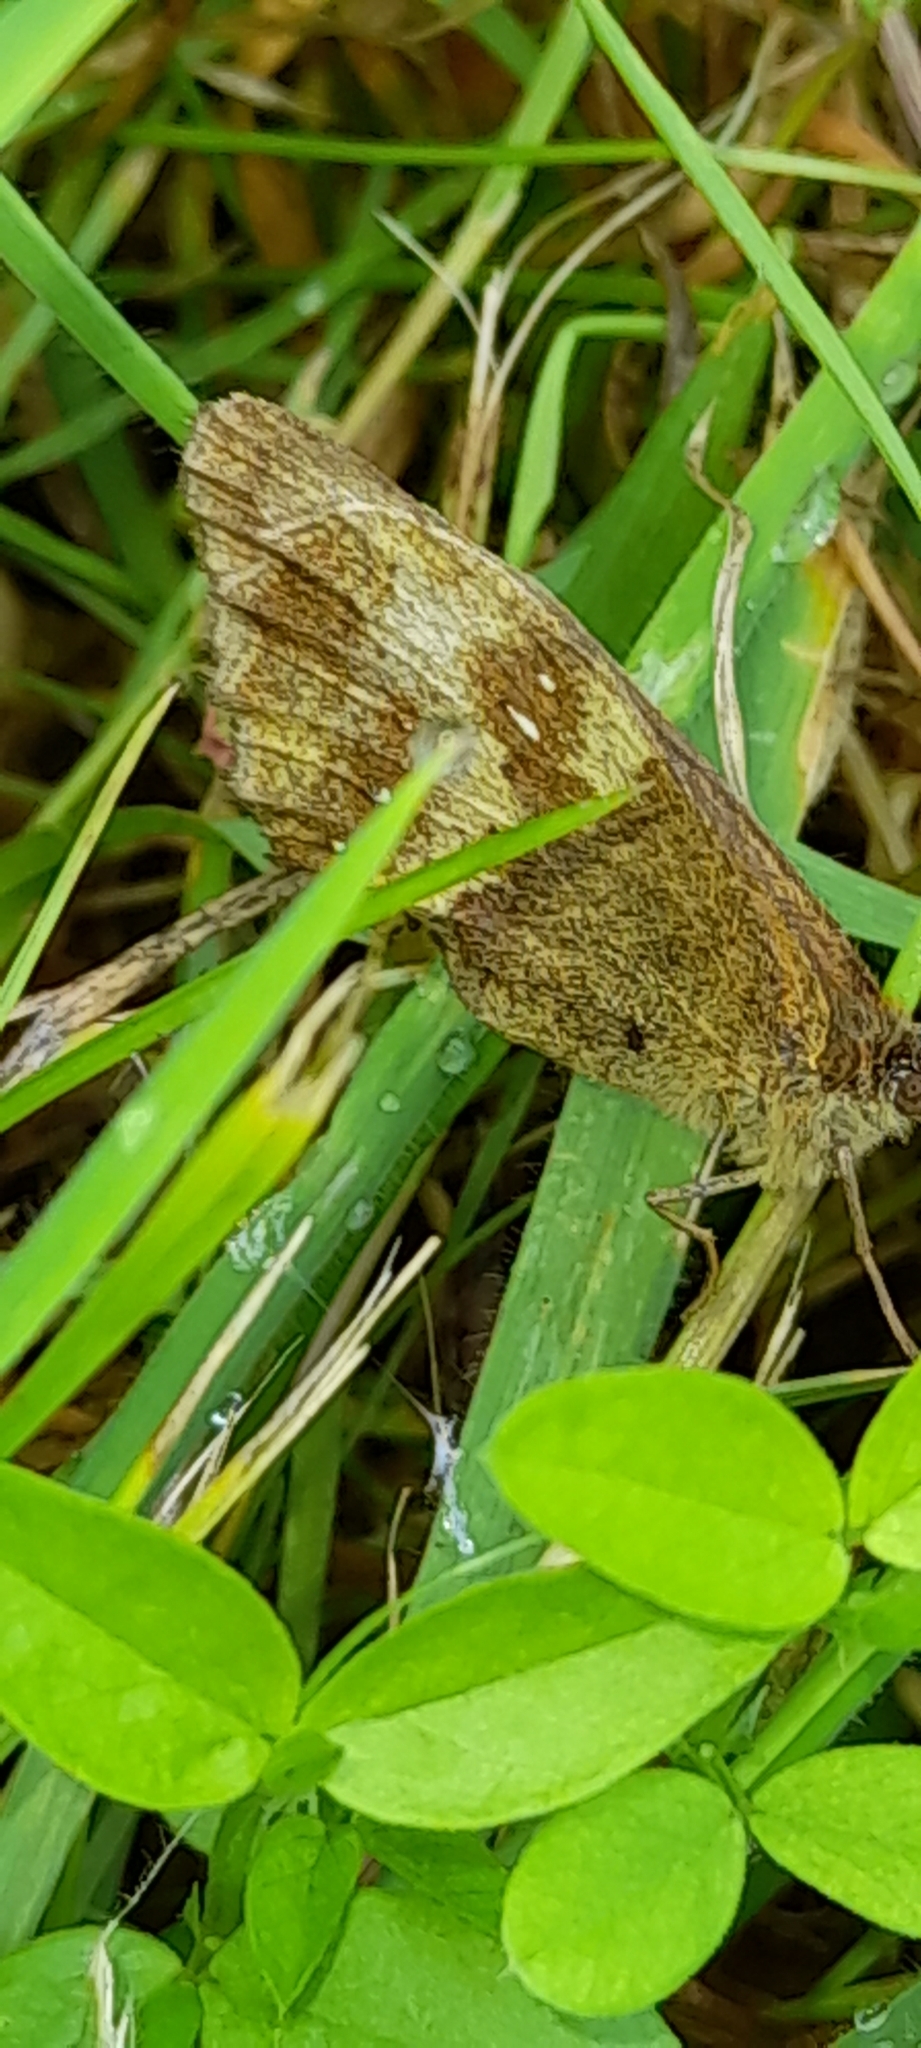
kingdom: Animalia
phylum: Arthropoda
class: Insecta
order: Lepidoptera
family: Nymphalidae
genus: Pyronia
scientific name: Pyronia tithonus
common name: Gatekeeper
